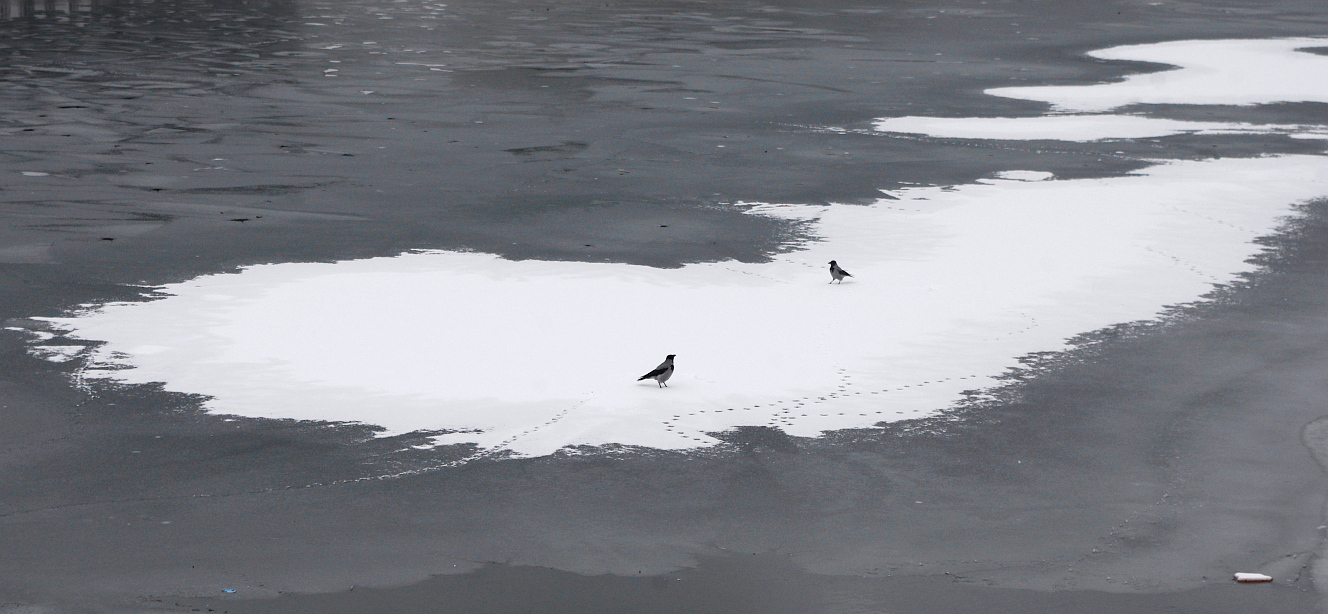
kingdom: Animalia
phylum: Chordata
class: Aves
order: Passeriformes
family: Corvidae
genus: Corvus
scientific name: Corvus cornix
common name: Hooded crow
